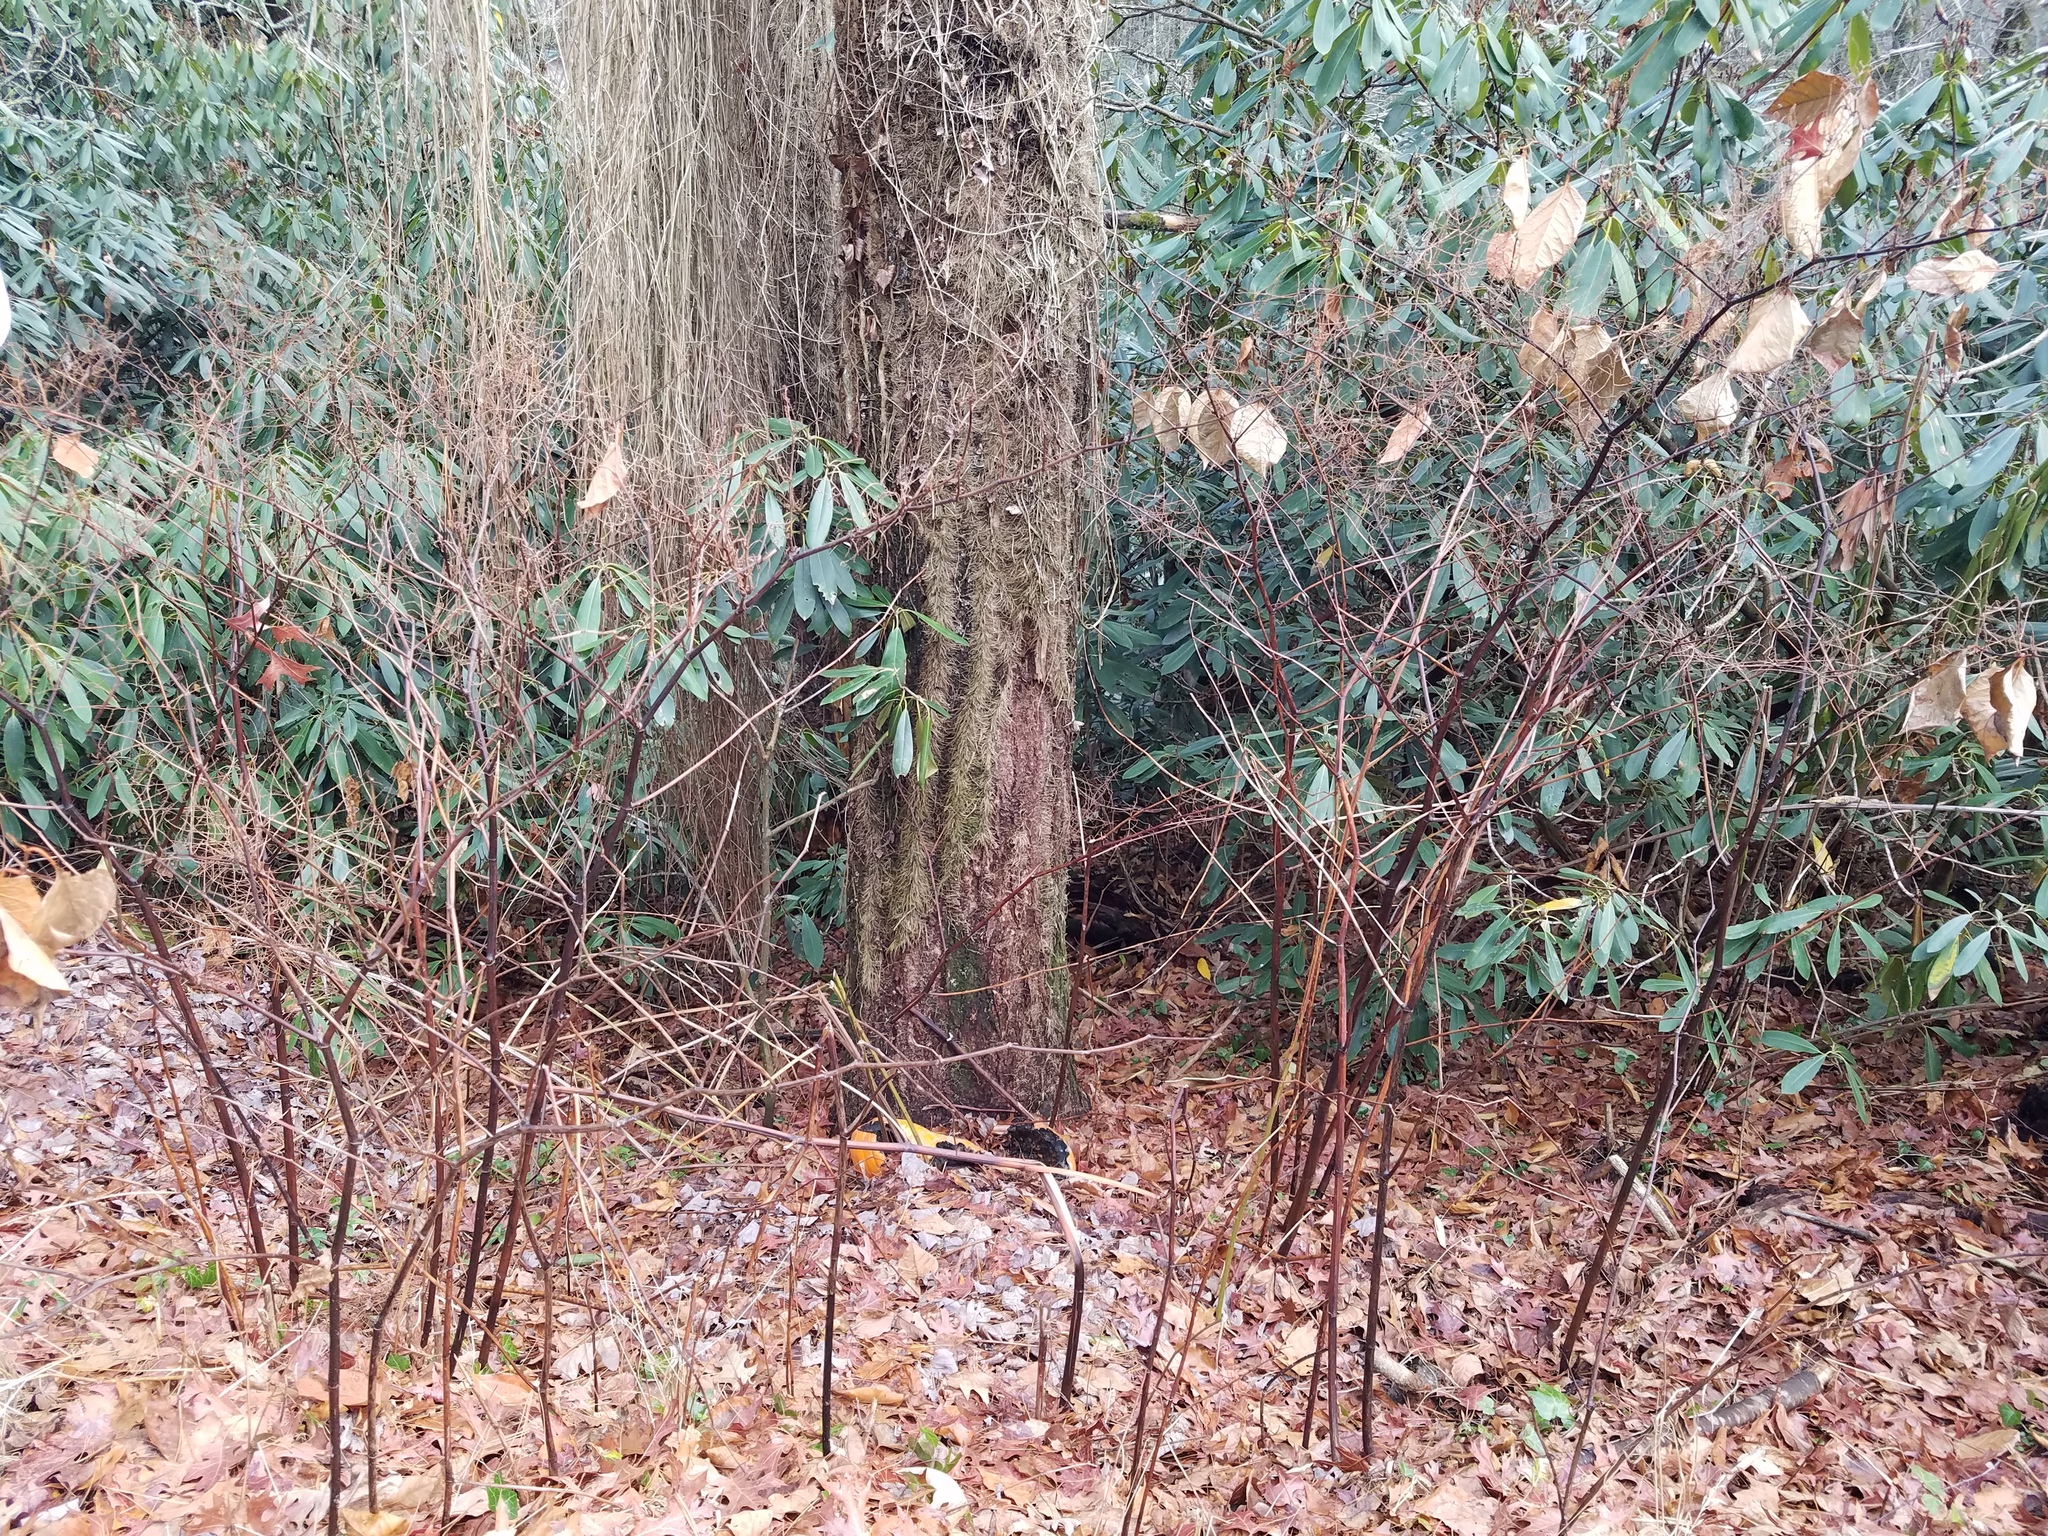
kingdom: Plantae
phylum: Tracheophyta
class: Magnoliopsida
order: Caryophyllales
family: Polygonaceae
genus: Reynoutria
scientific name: Reynoutria japonica
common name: Japanese knotweed
